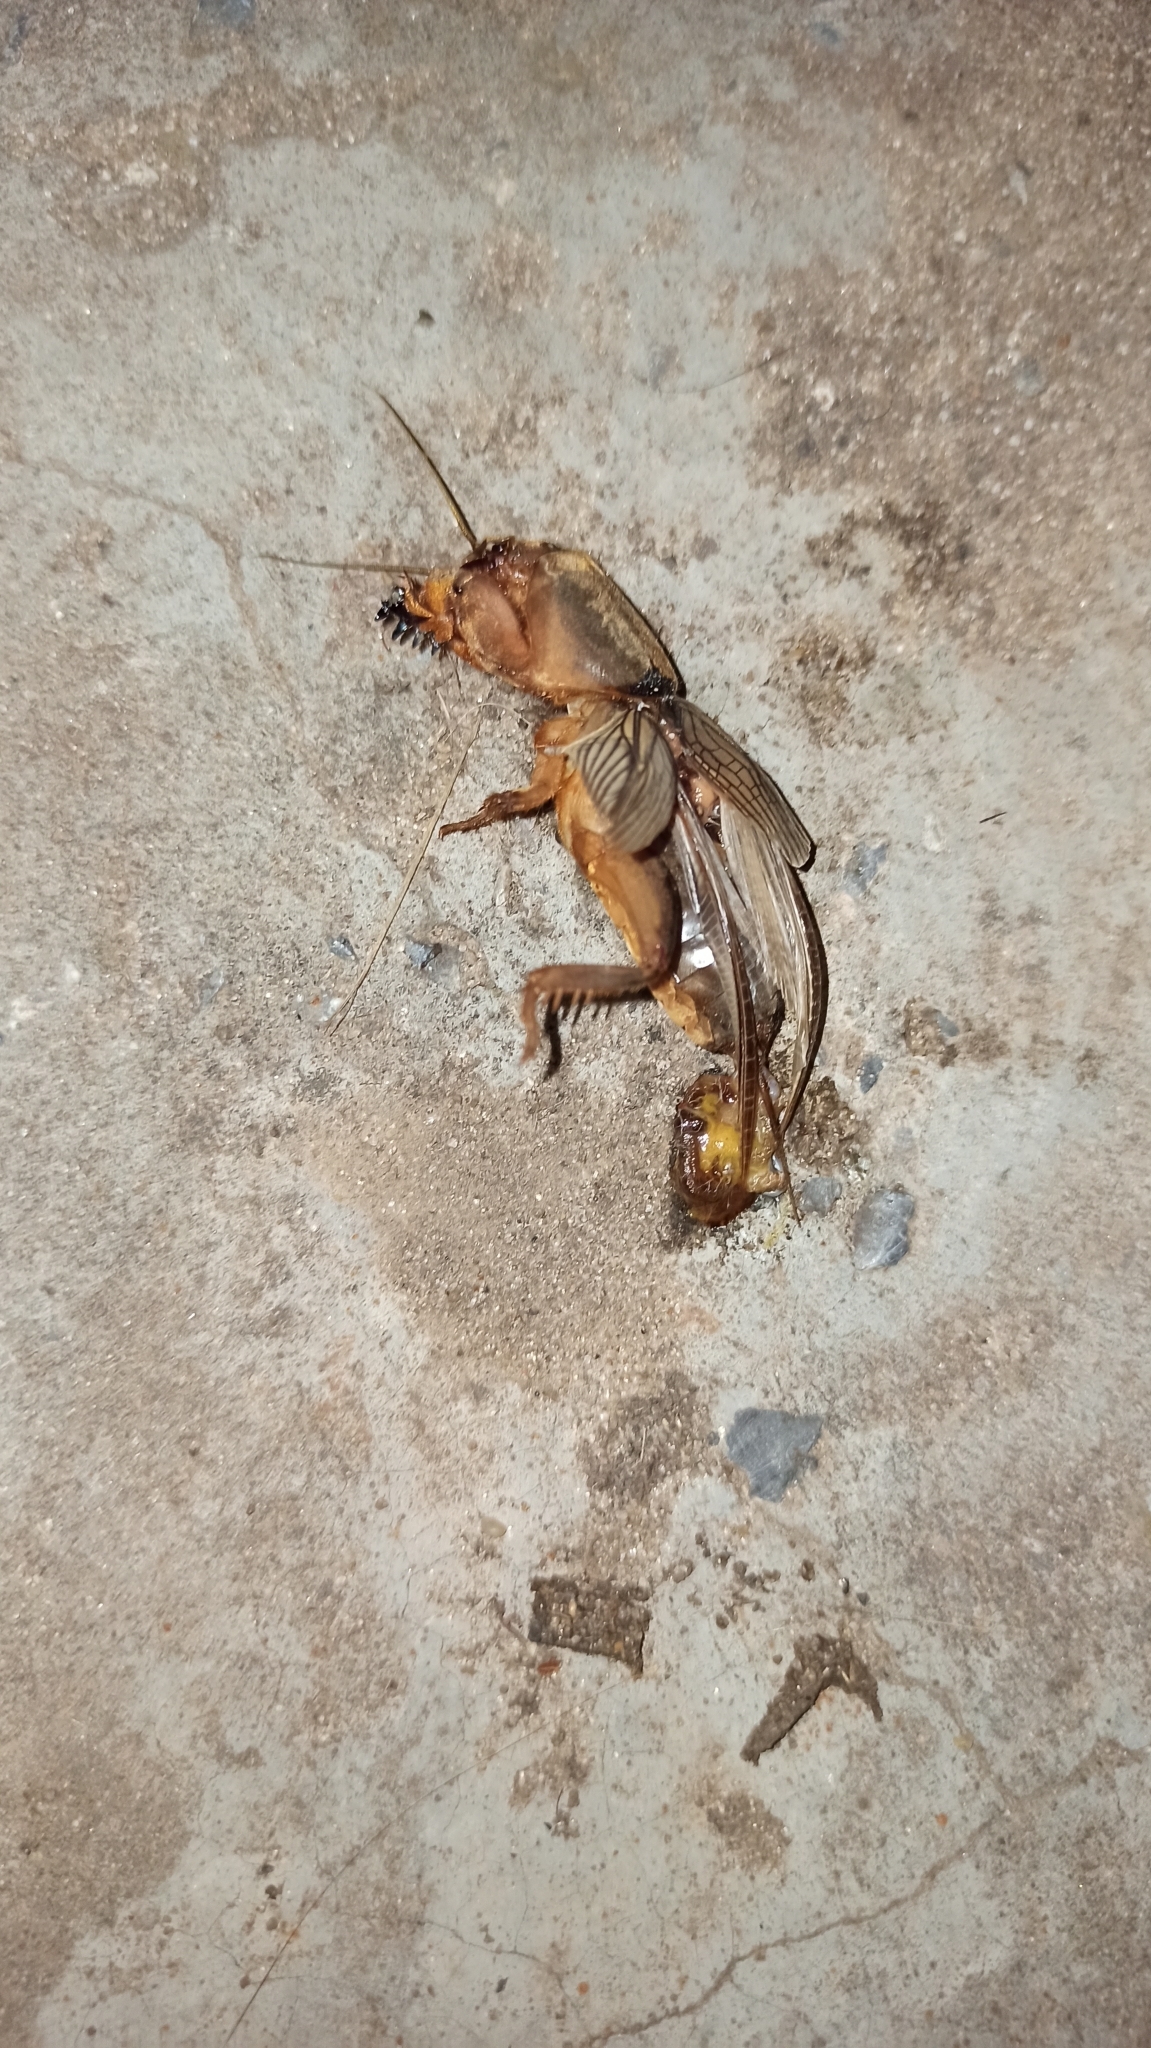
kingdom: Animalia
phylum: Arthropoda
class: Insecta
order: Orthoptera
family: Gryllotalpidae
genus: Gryllotalpa
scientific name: Gryllotalpa gryllotalpa
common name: European mole cricket
